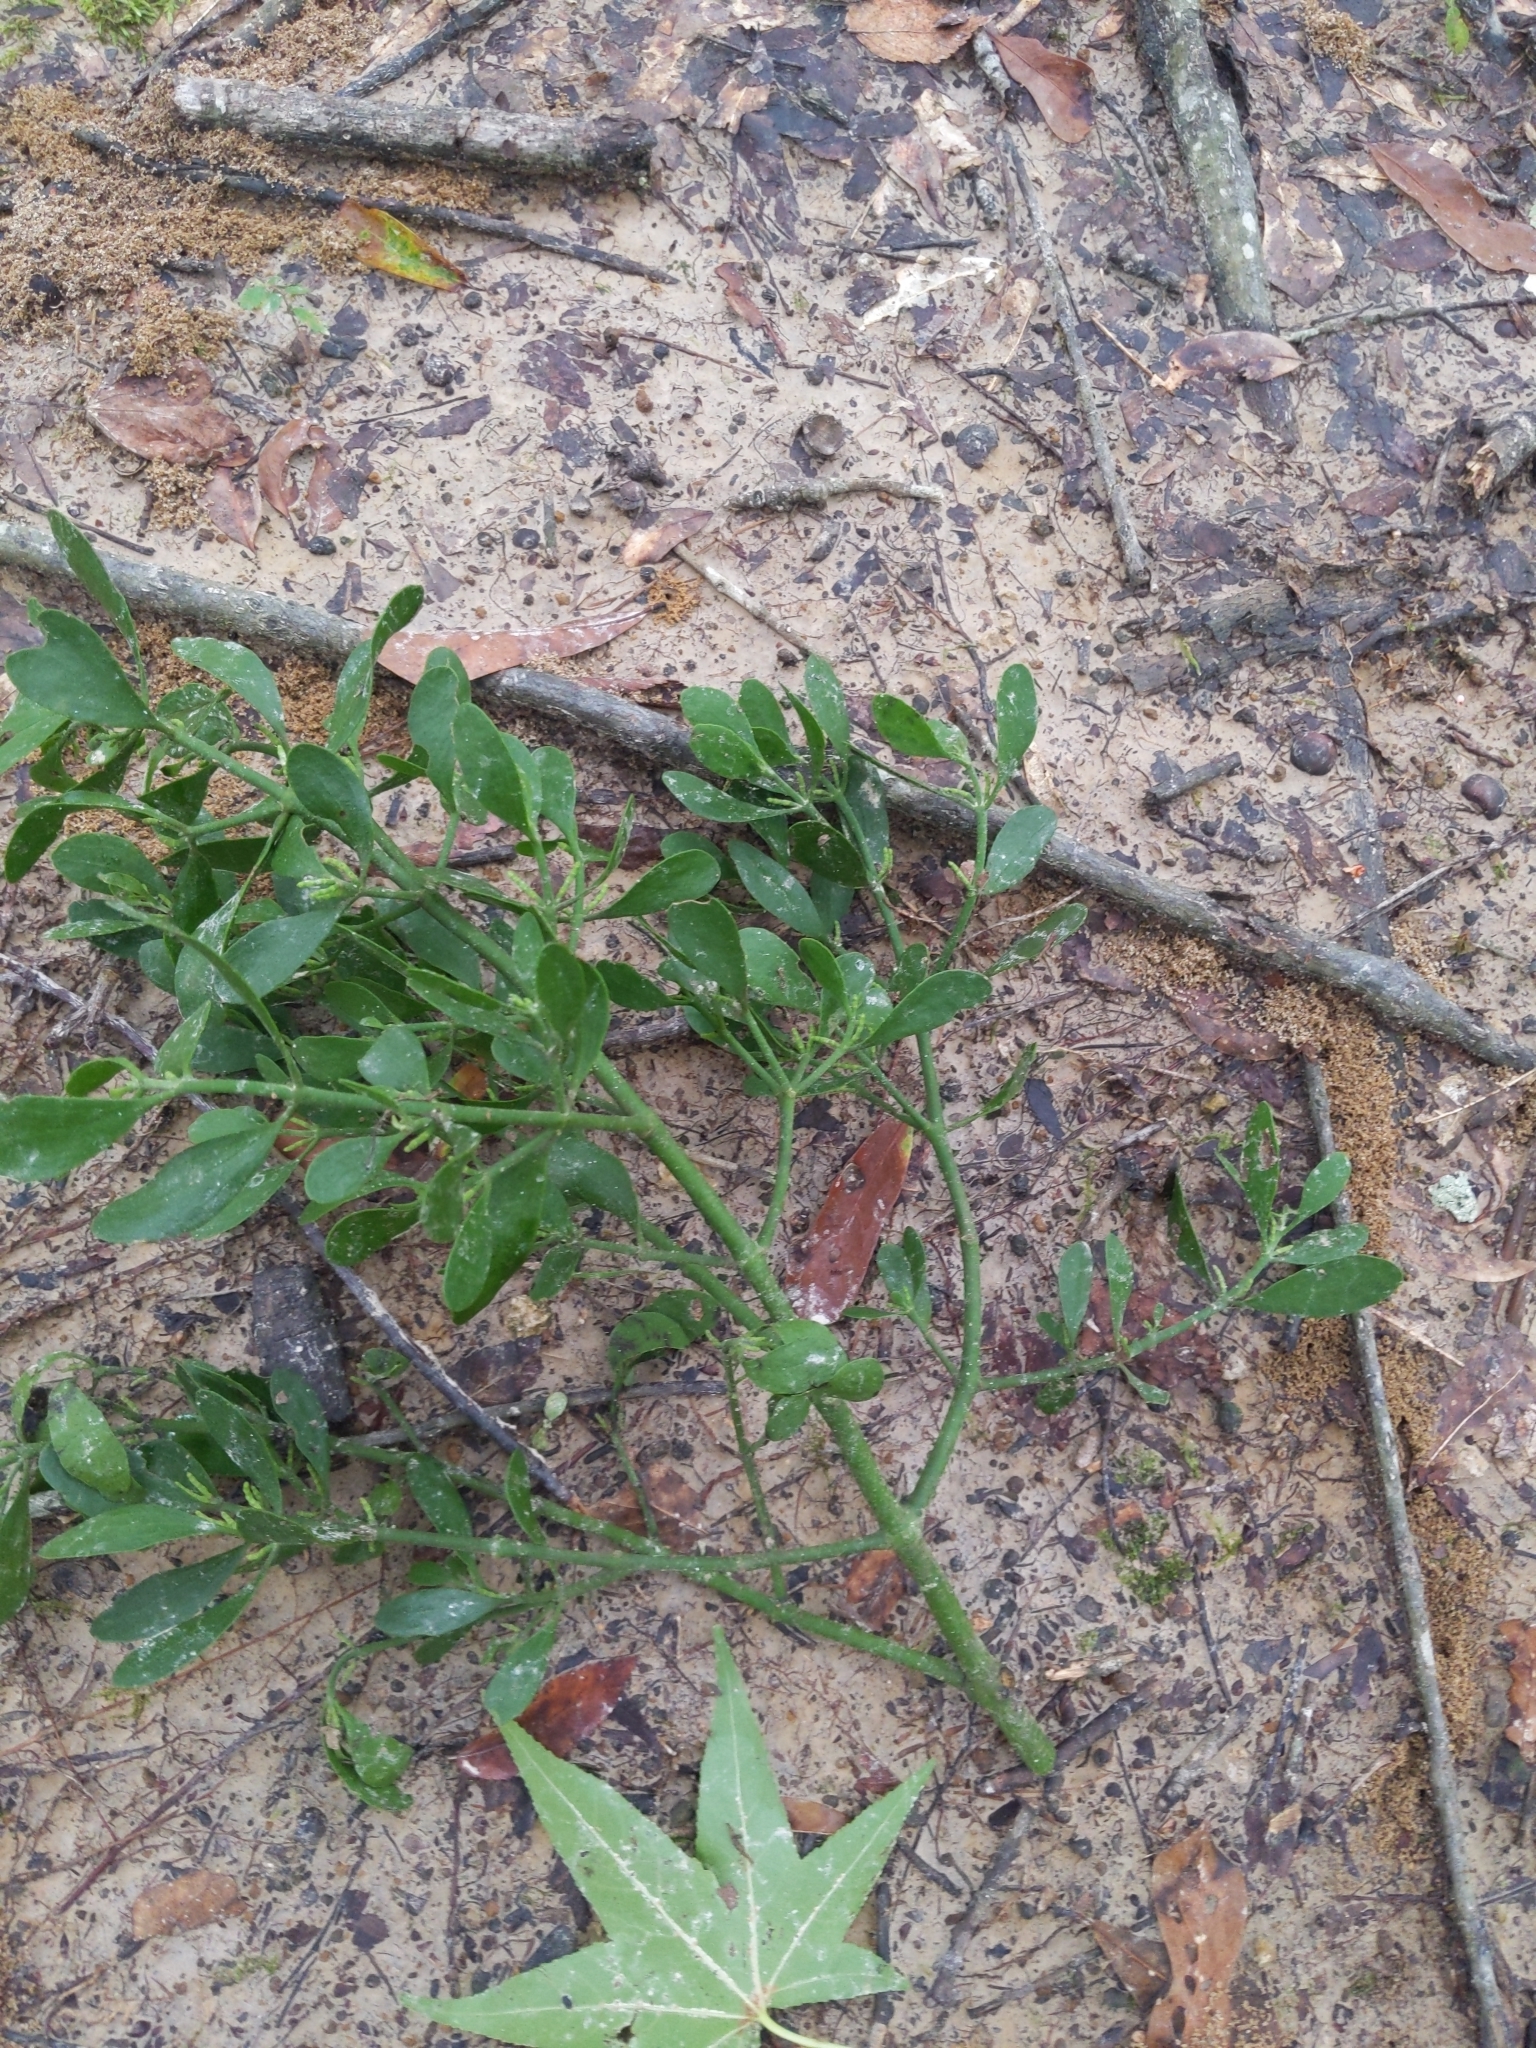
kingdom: Plantae
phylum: Tracheophyta
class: Magnoliopsida
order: Santalales
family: Viscaceae
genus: Phoradendron
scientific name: Phoradendron leucarpum
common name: Pacific mistletoe
